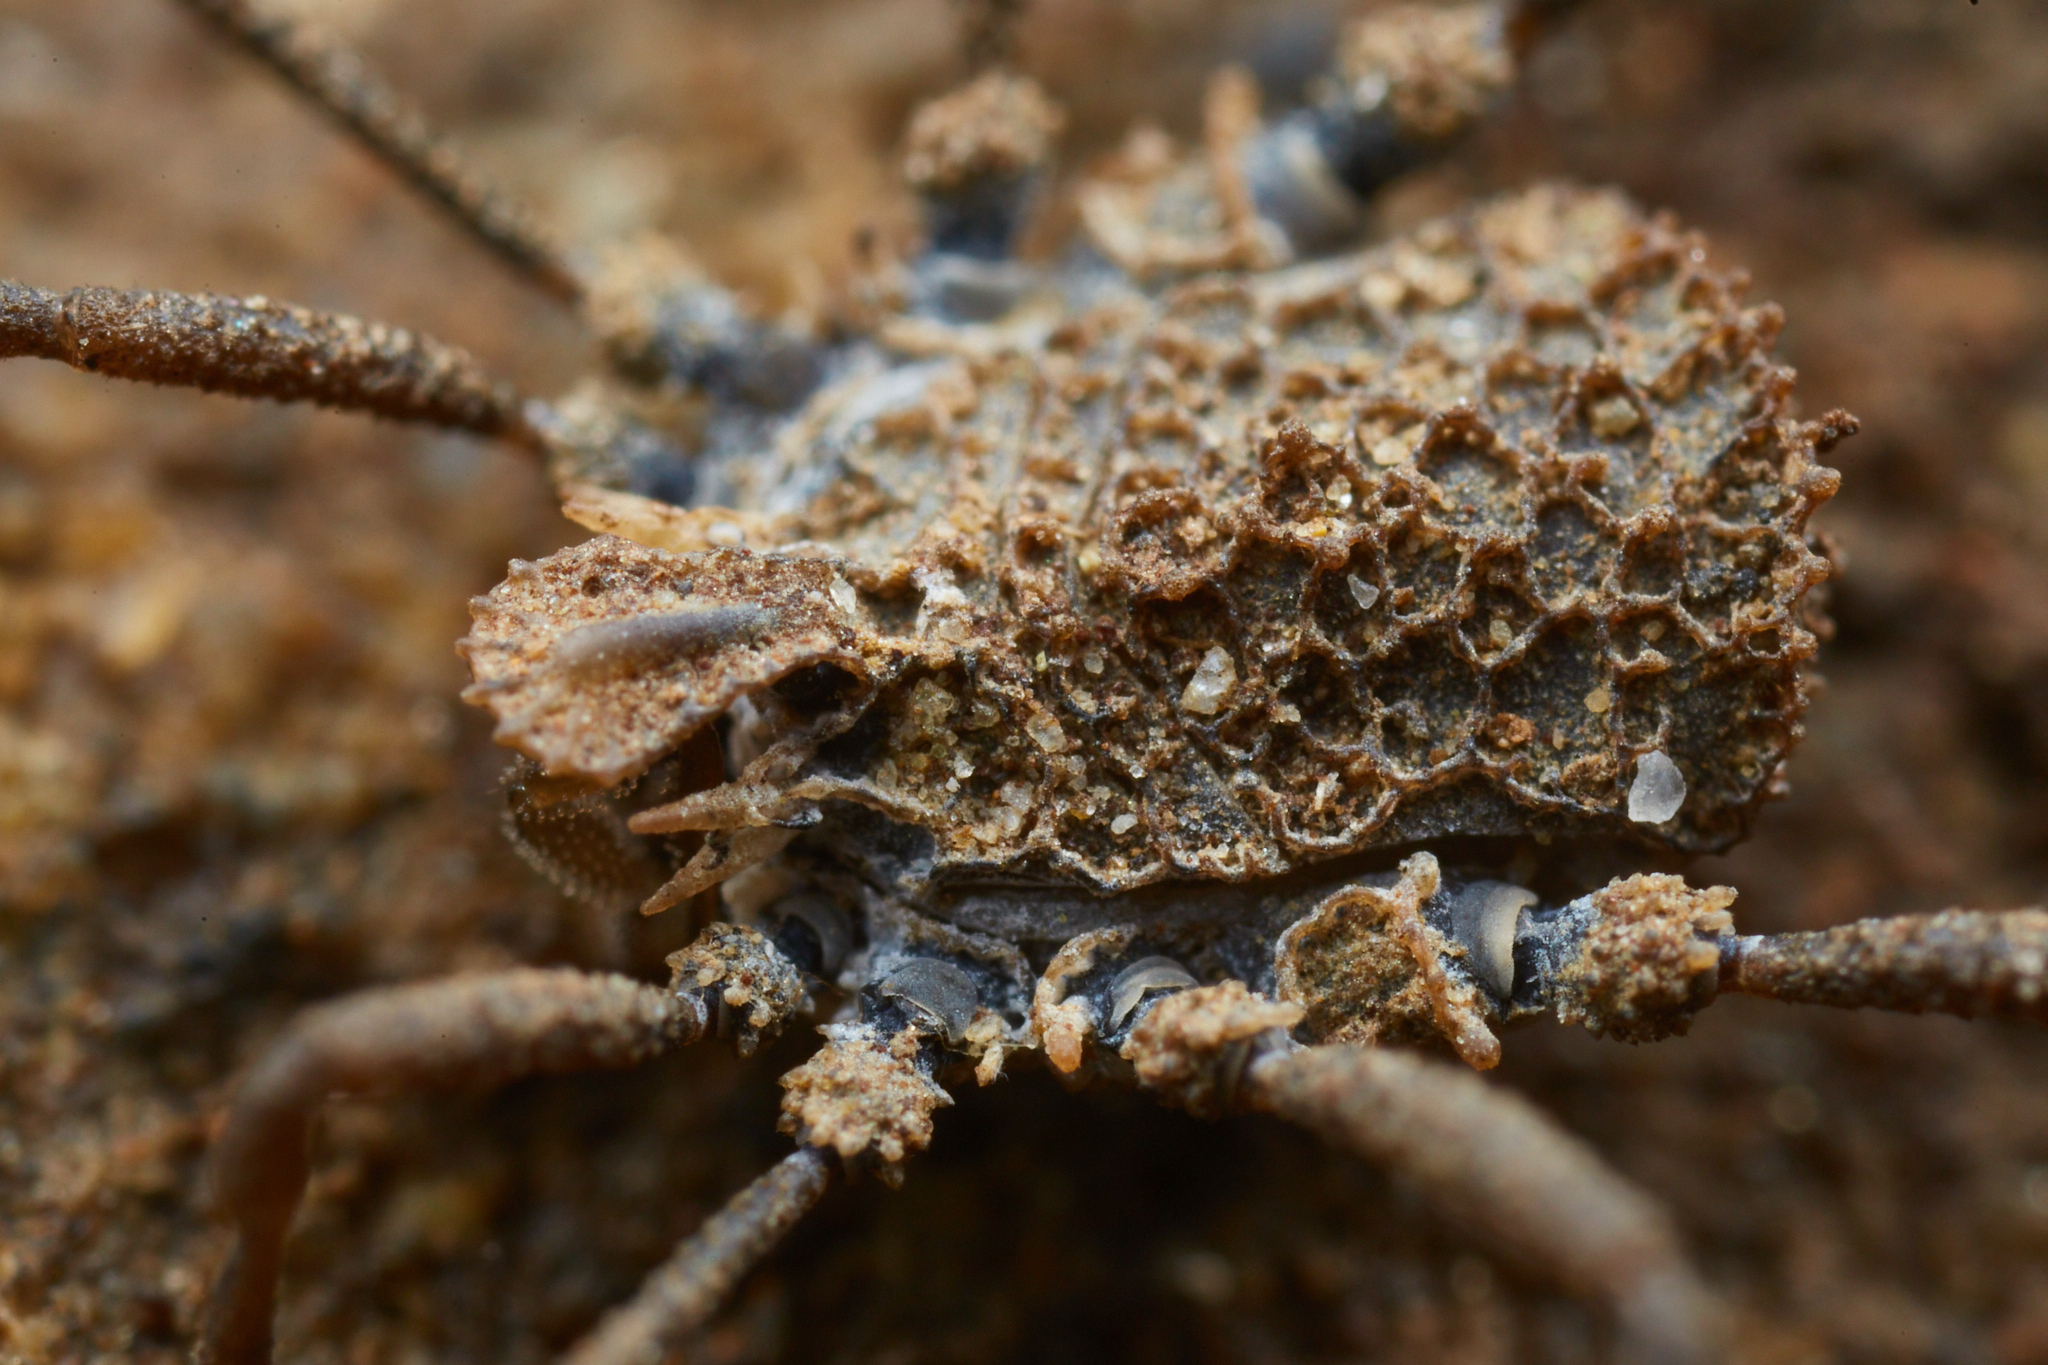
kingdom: Animalia
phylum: Arthropoda
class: Arachnida
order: Opiliones
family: Nemastomatidae
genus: Ortholasma
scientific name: Ortholasma rugosum
